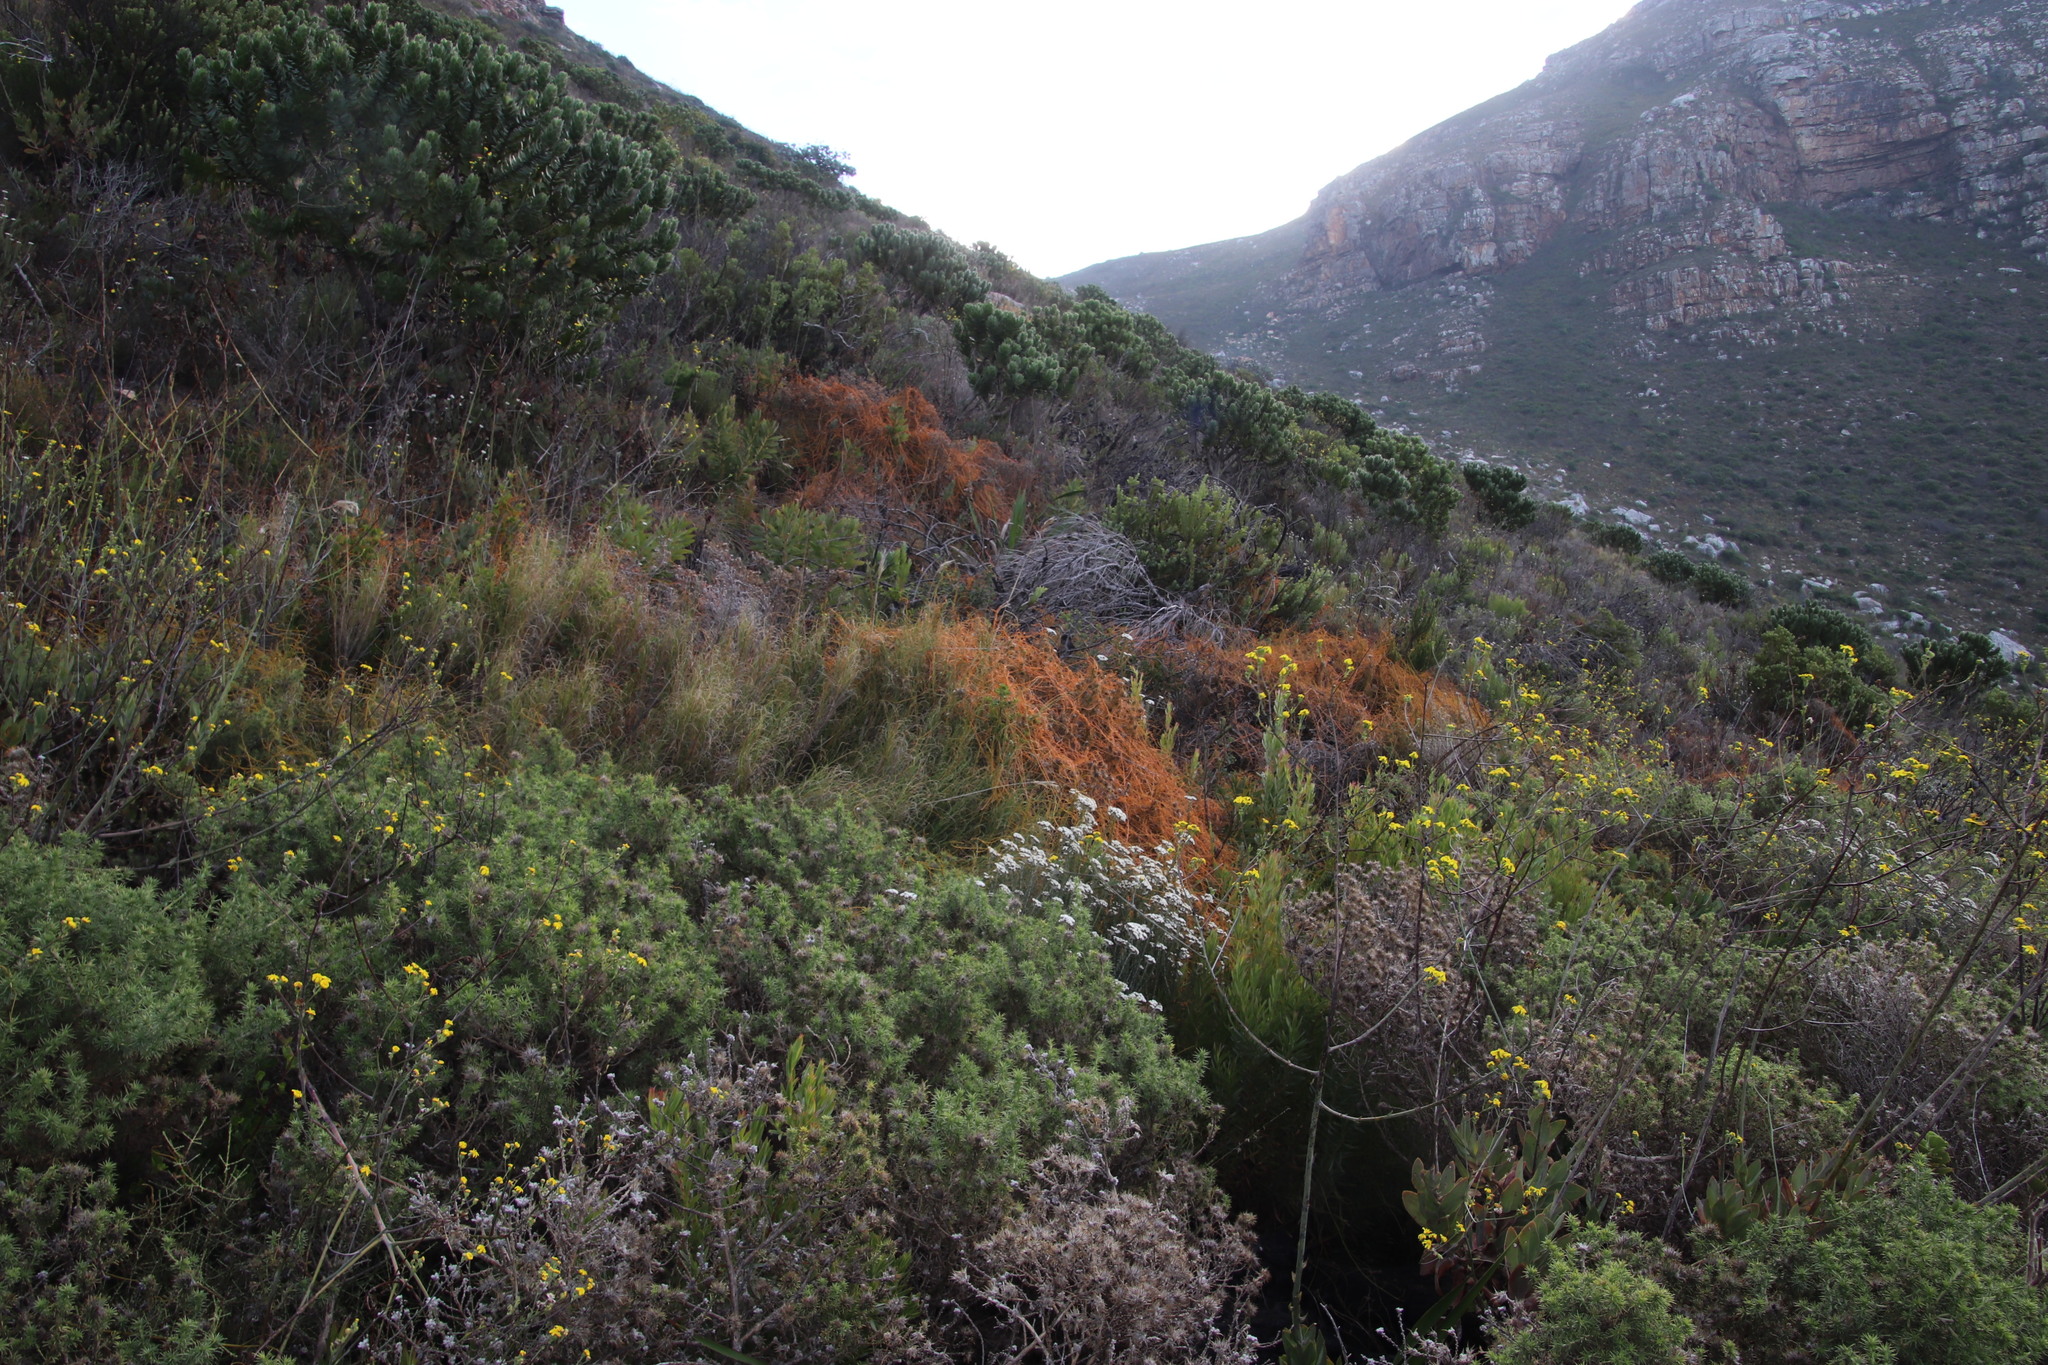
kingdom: Plantae
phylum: Tracheophyta
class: Magnoliopsida
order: Laurales
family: Lauraceae
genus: Cassytha
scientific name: Cassytha ciliolata
